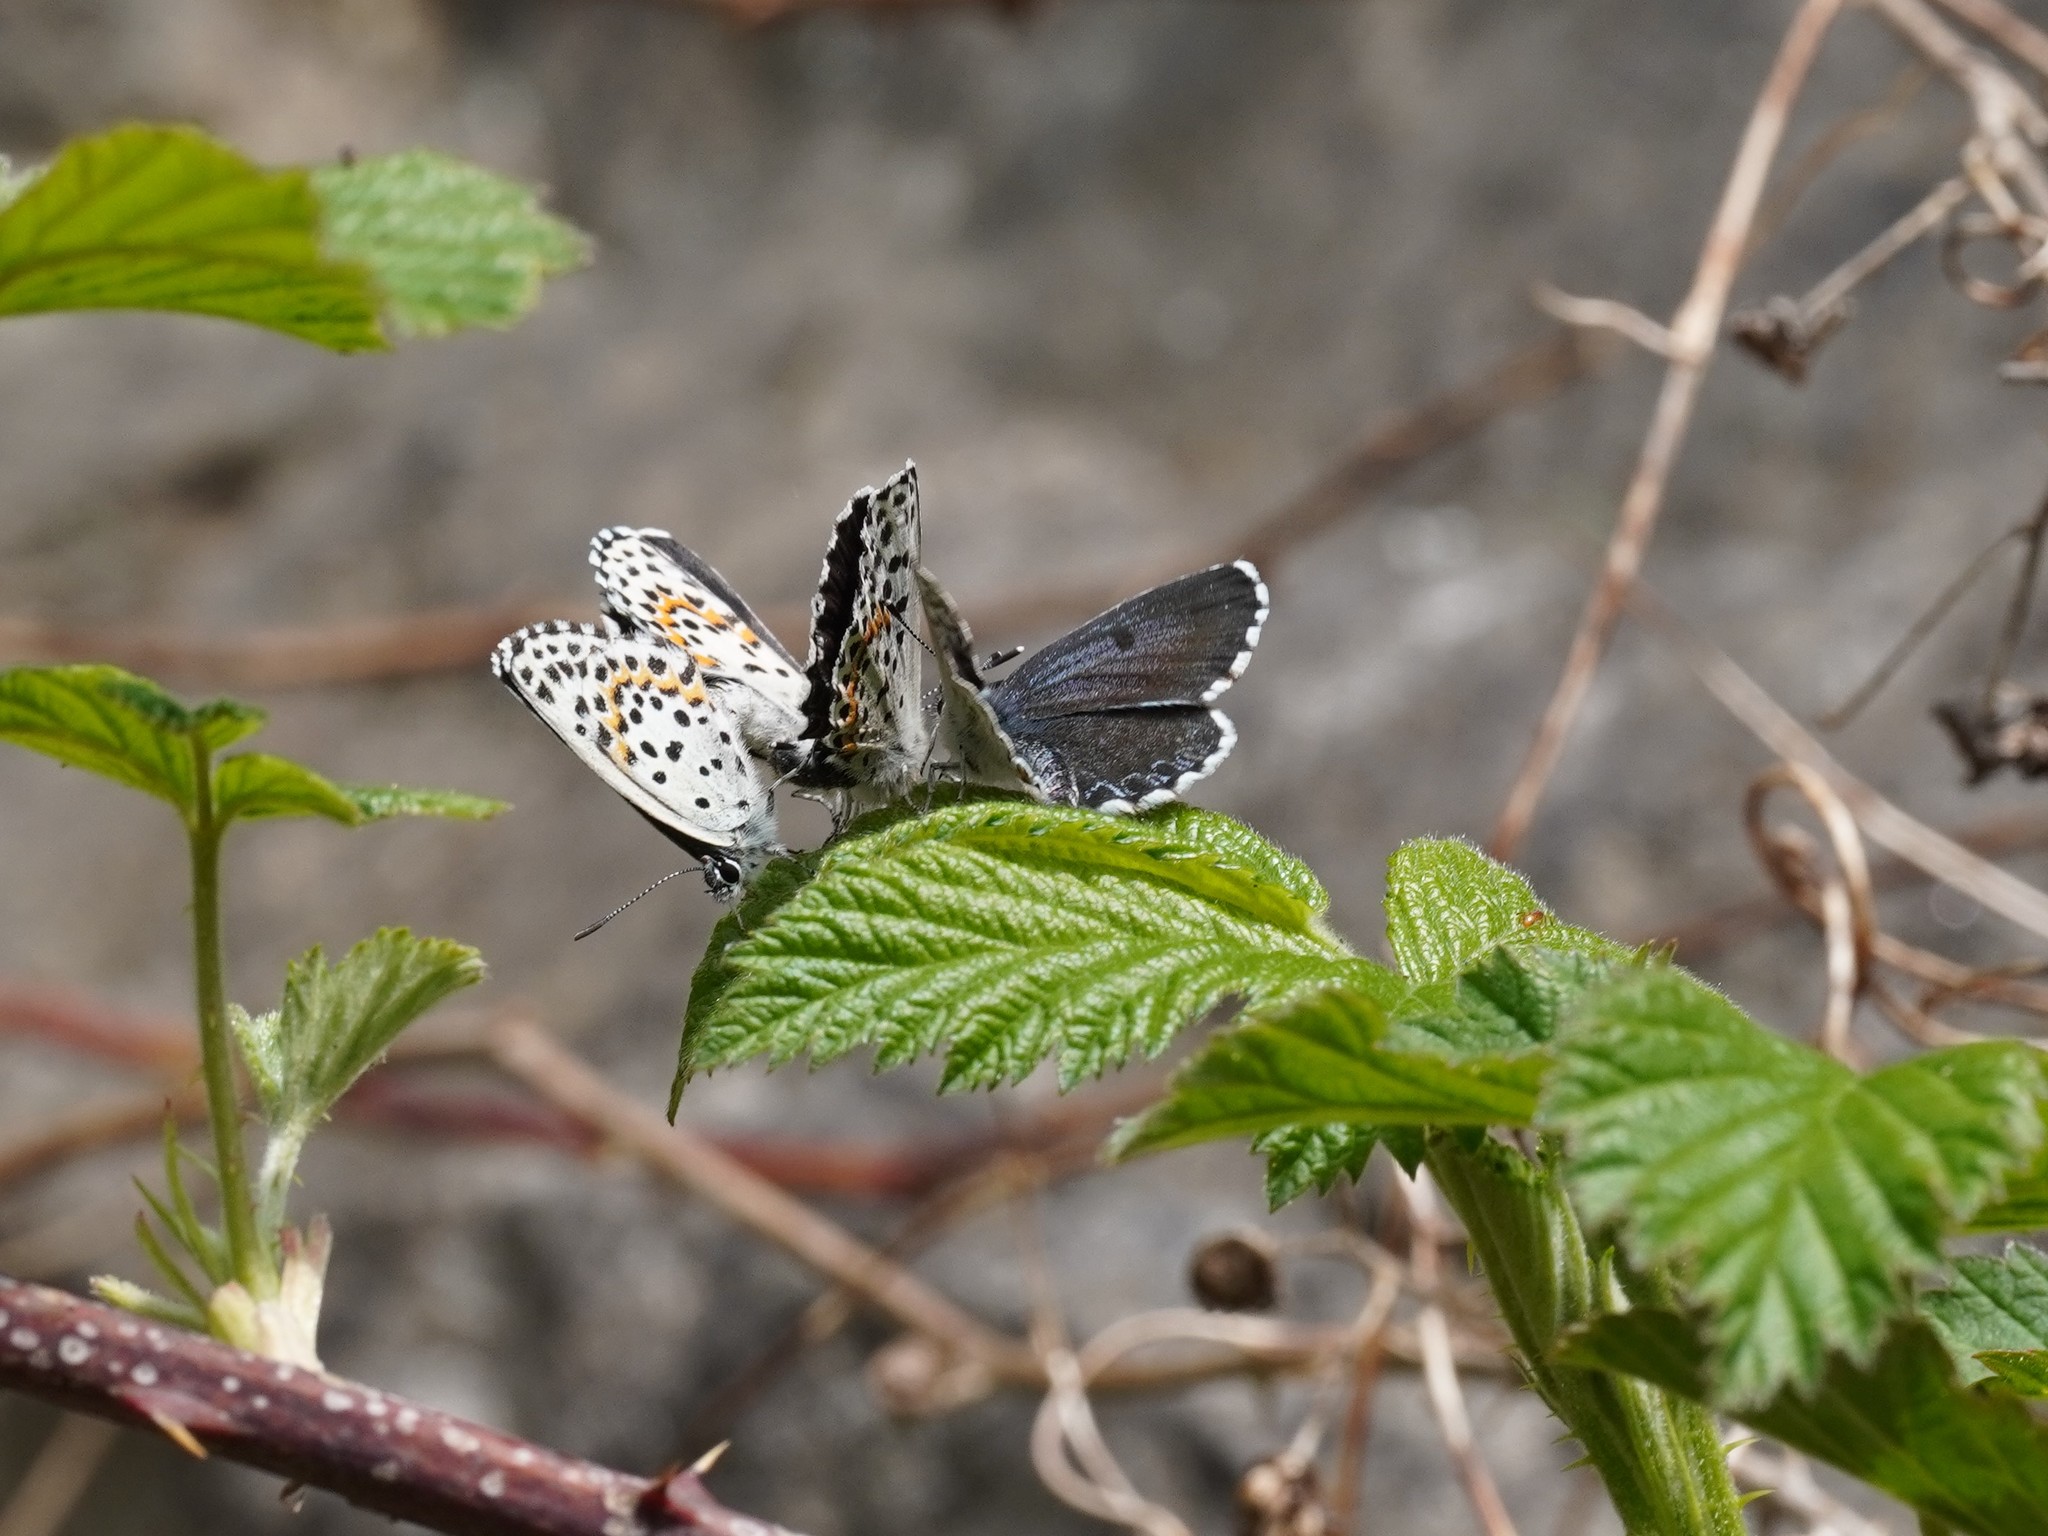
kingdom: Animalia
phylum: Arthropoda
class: Insecta
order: Lepidoptera
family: Lycaenidae
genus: Scolitantides
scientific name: Scolitantides orion
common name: Chequered blue
